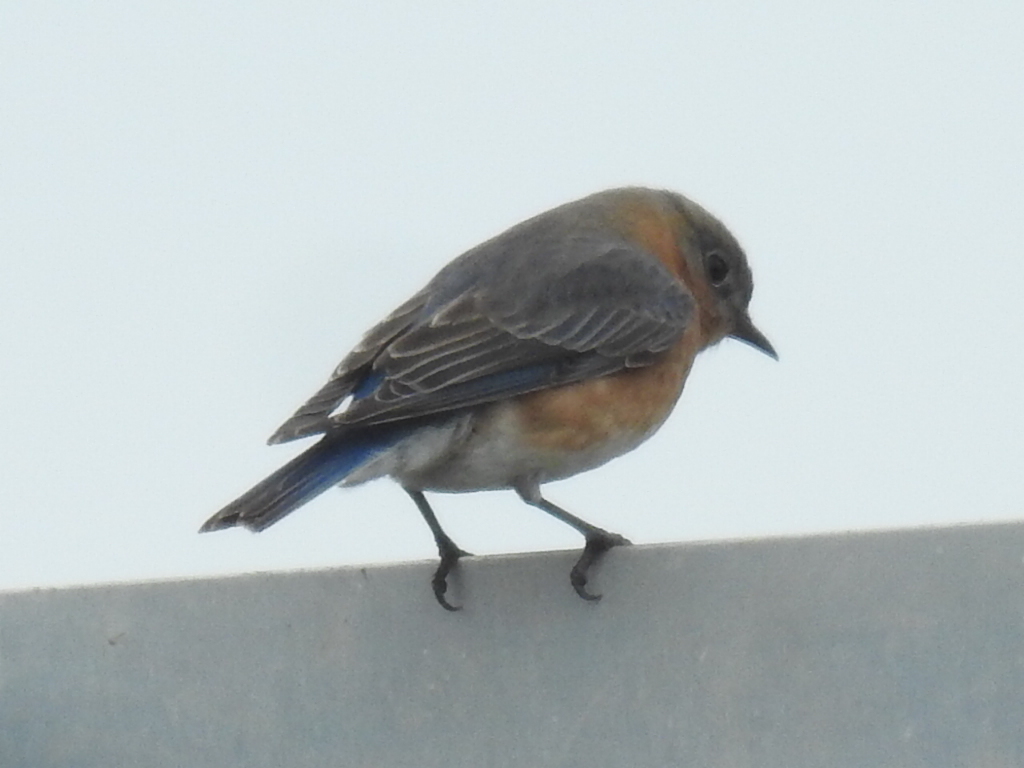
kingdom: Animalia
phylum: Chordata
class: Aves
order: Passeriformes
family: Turdidae
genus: Sialia
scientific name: Sialia sialis
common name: Eastern bluebird
